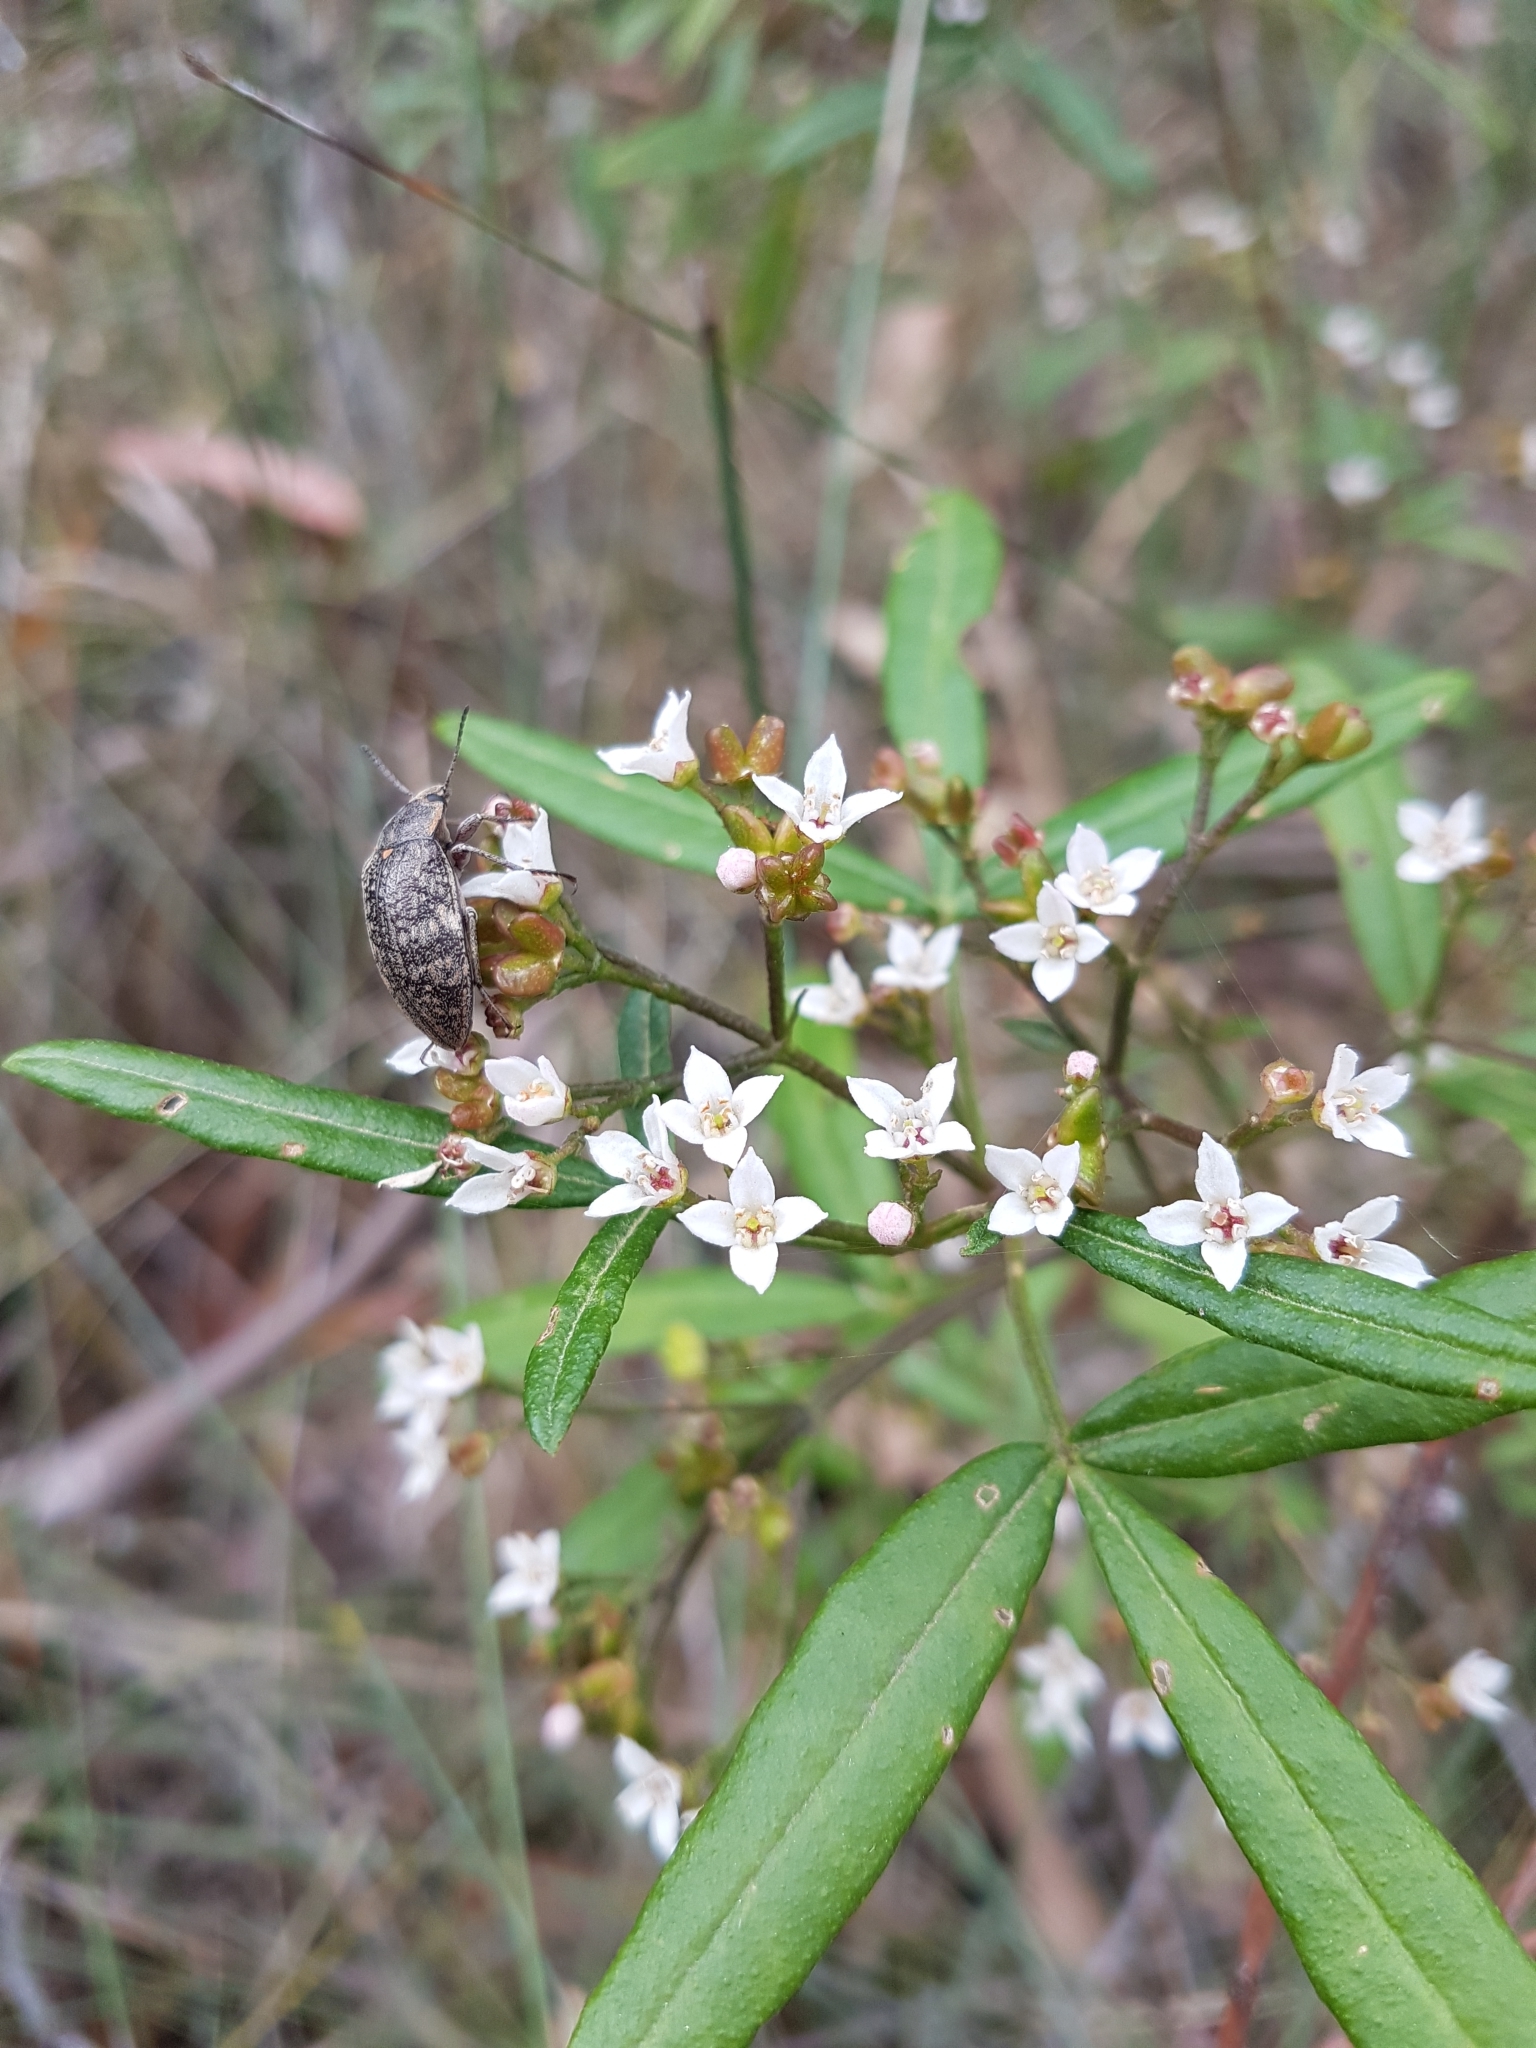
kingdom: Plantae
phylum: Tracheophyta
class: Magnoliopsida
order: Sapindales
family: Rutaceae
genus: Zieria
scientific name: Zieria smithii
